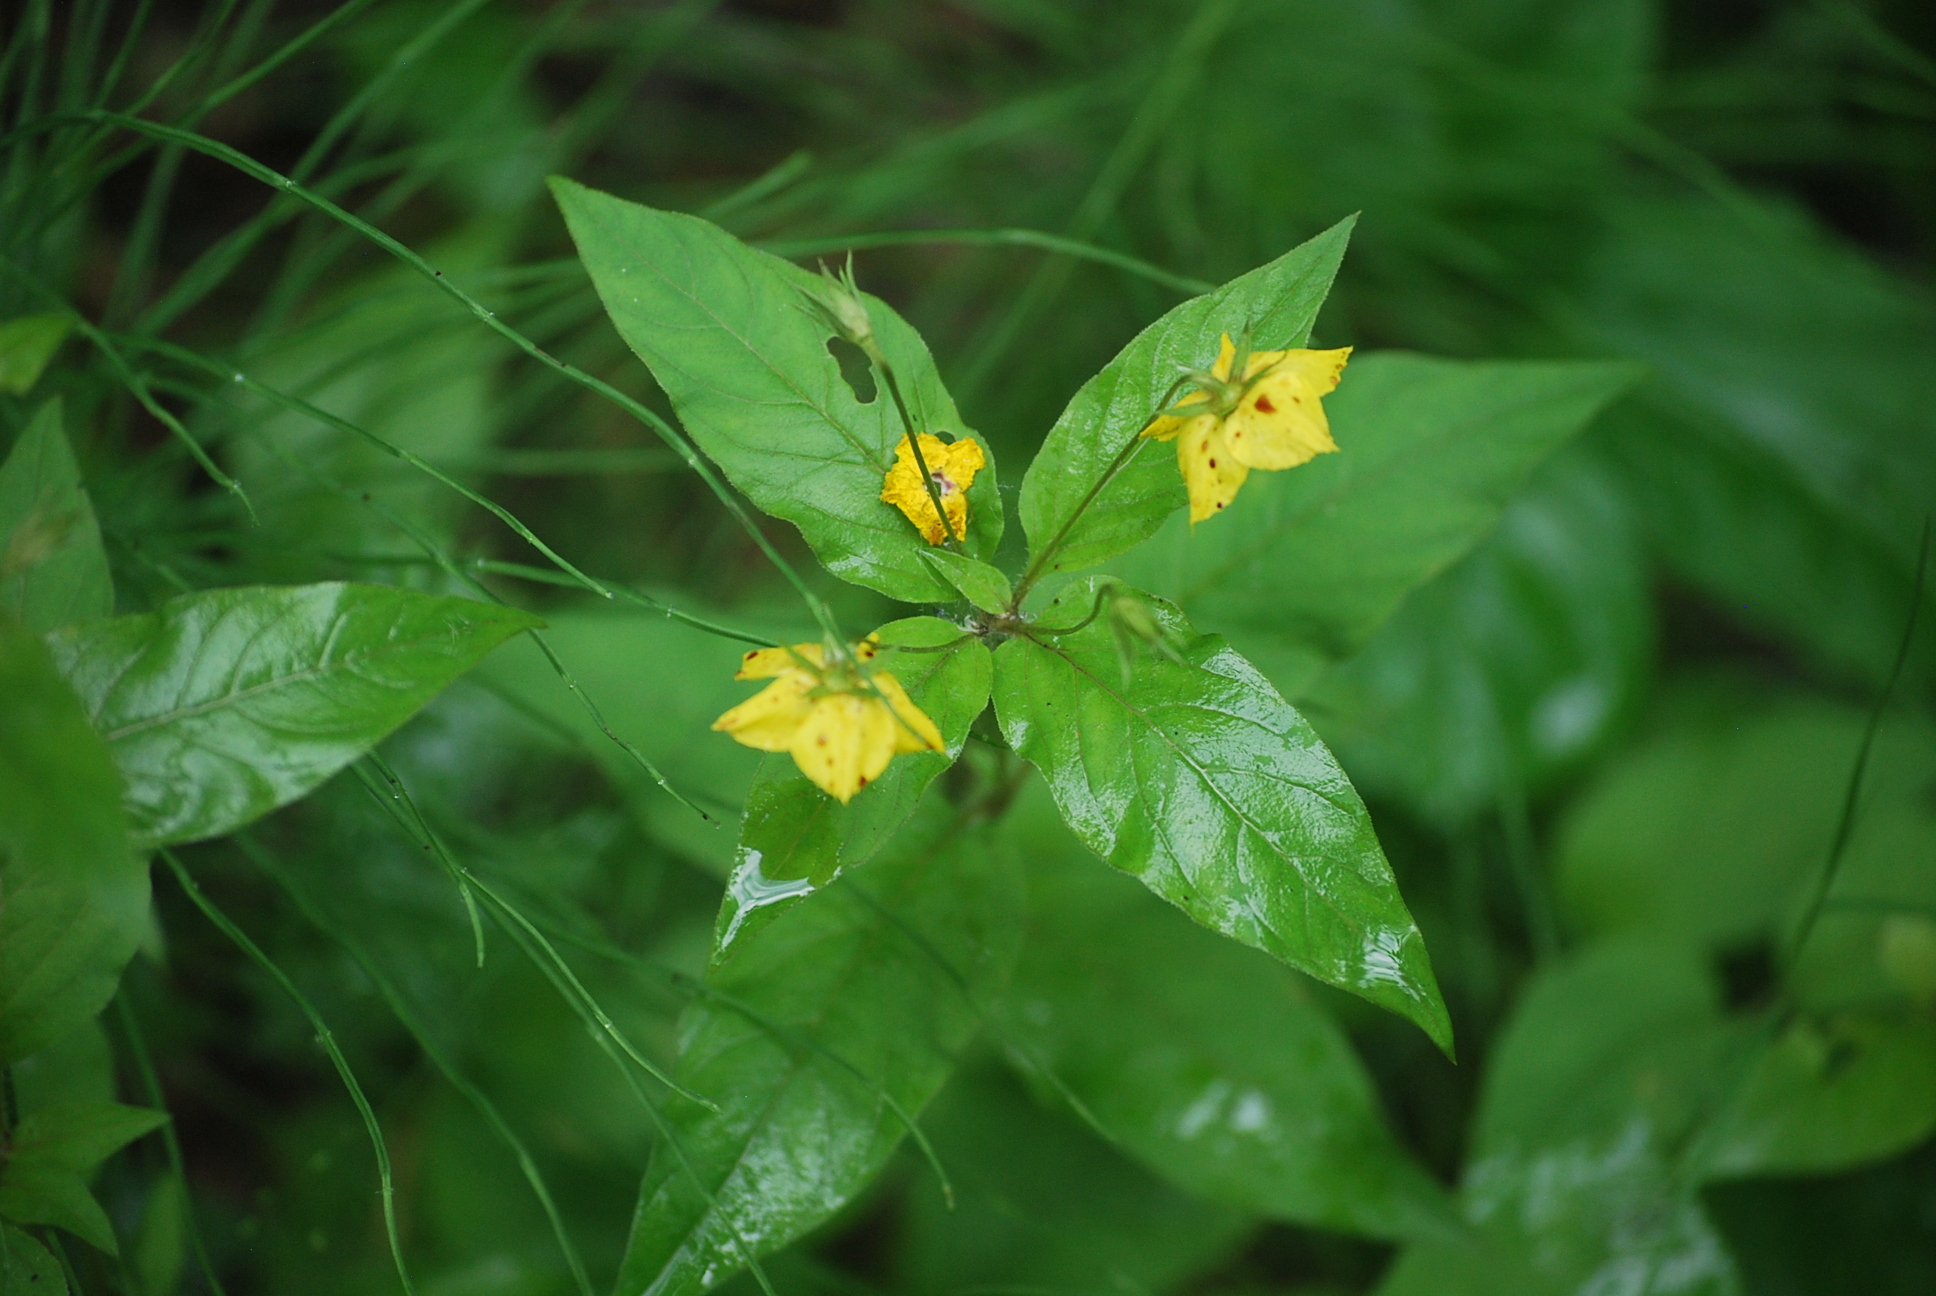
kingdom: Plantae
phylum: Tracheophyta
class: Magnoliopsida
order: Ericales
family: Primulaceae
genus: Lysimachia
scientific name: Lysimachia ciliata
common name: Fringed loosestrife
